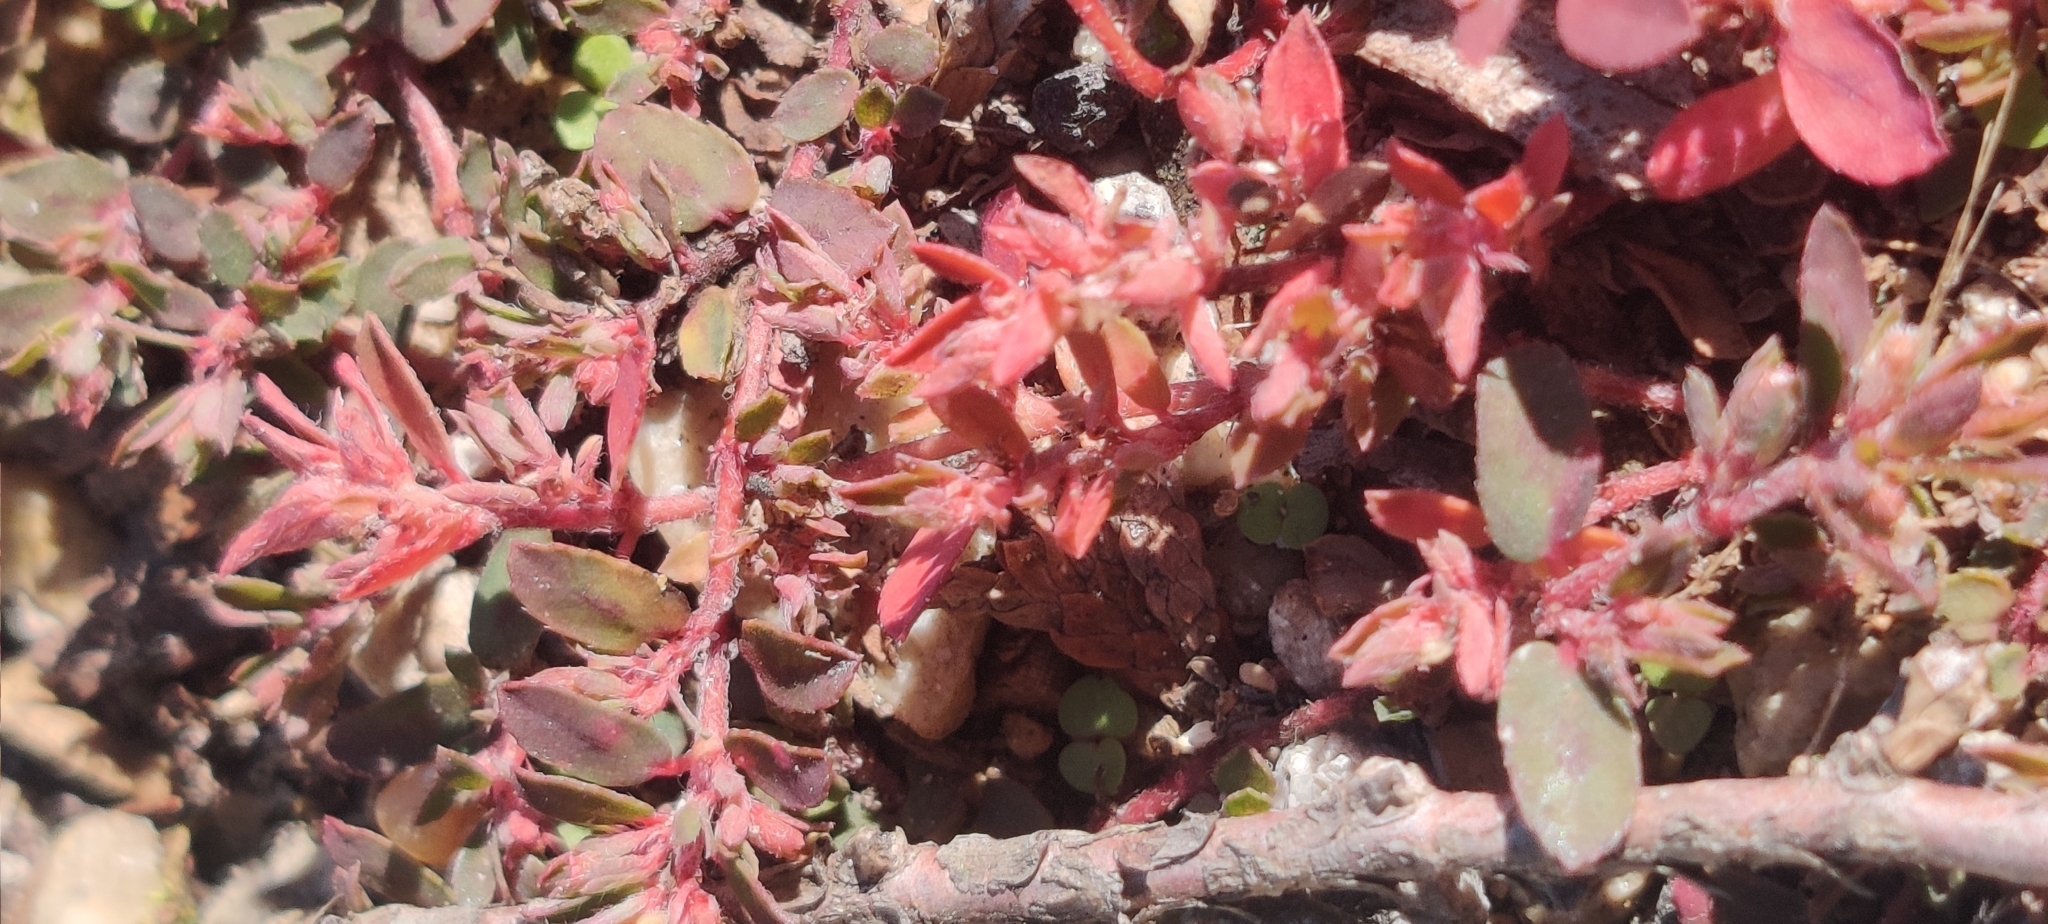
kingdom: Plantae
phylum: Tracheophyta
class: Magnoliopsida
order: Malpighiales
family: Euphorbiaceae
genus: Euphorbia
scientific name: Euphorbia maculata
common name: Spotted spurge
